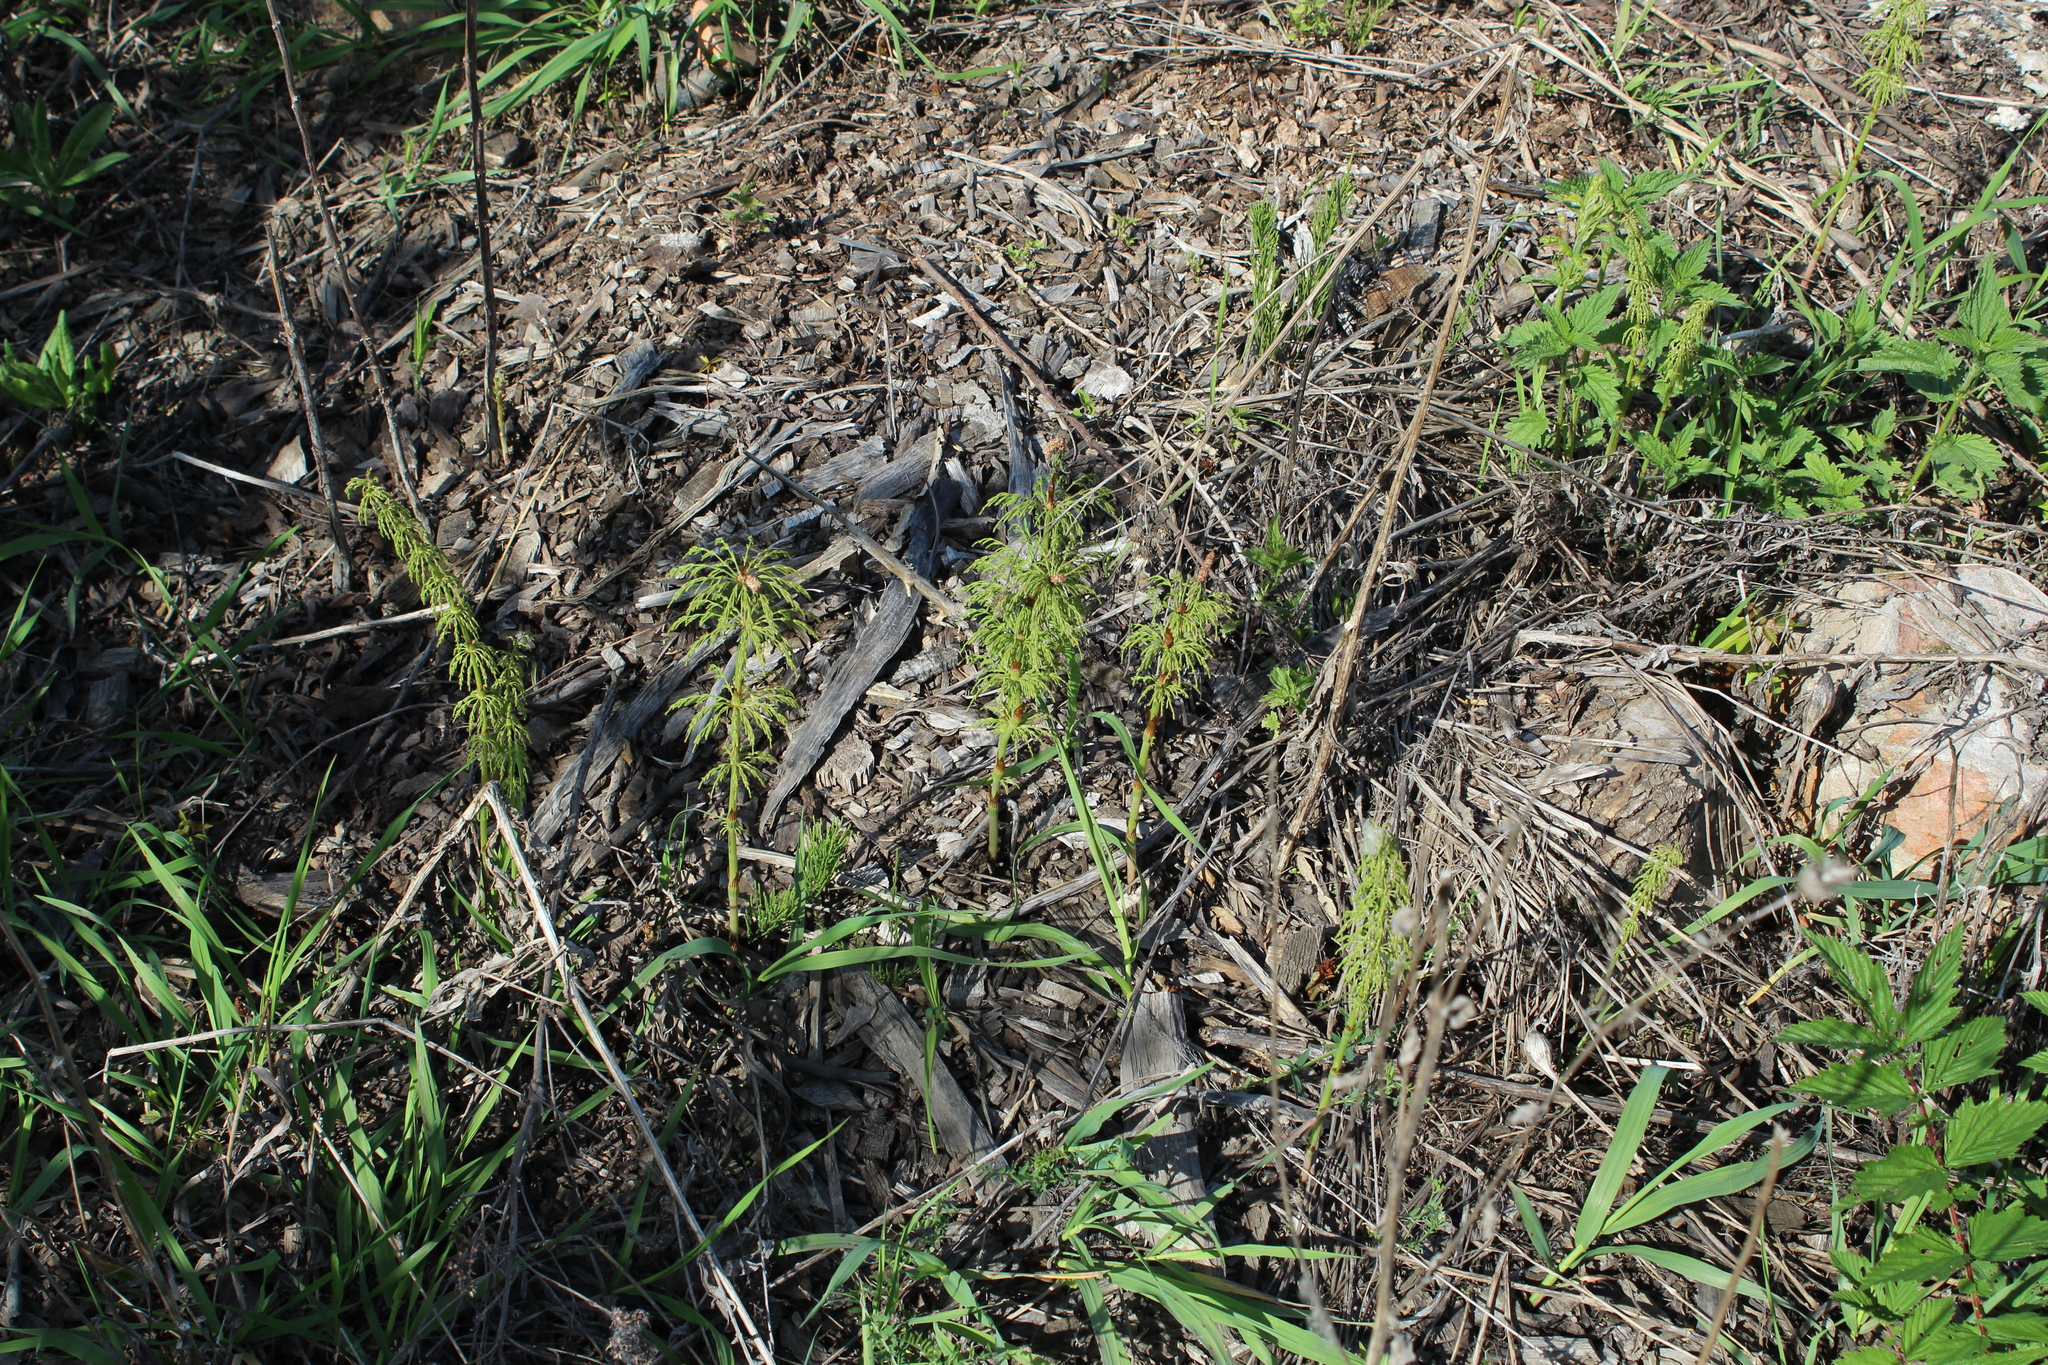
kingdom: Plantae
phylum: Tracheophyta
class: Polypodiopsida
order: Equisetales
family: Equisetaceae
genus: Equisetum
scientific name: Equisetum sylvaticum
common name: Wood horsetail
